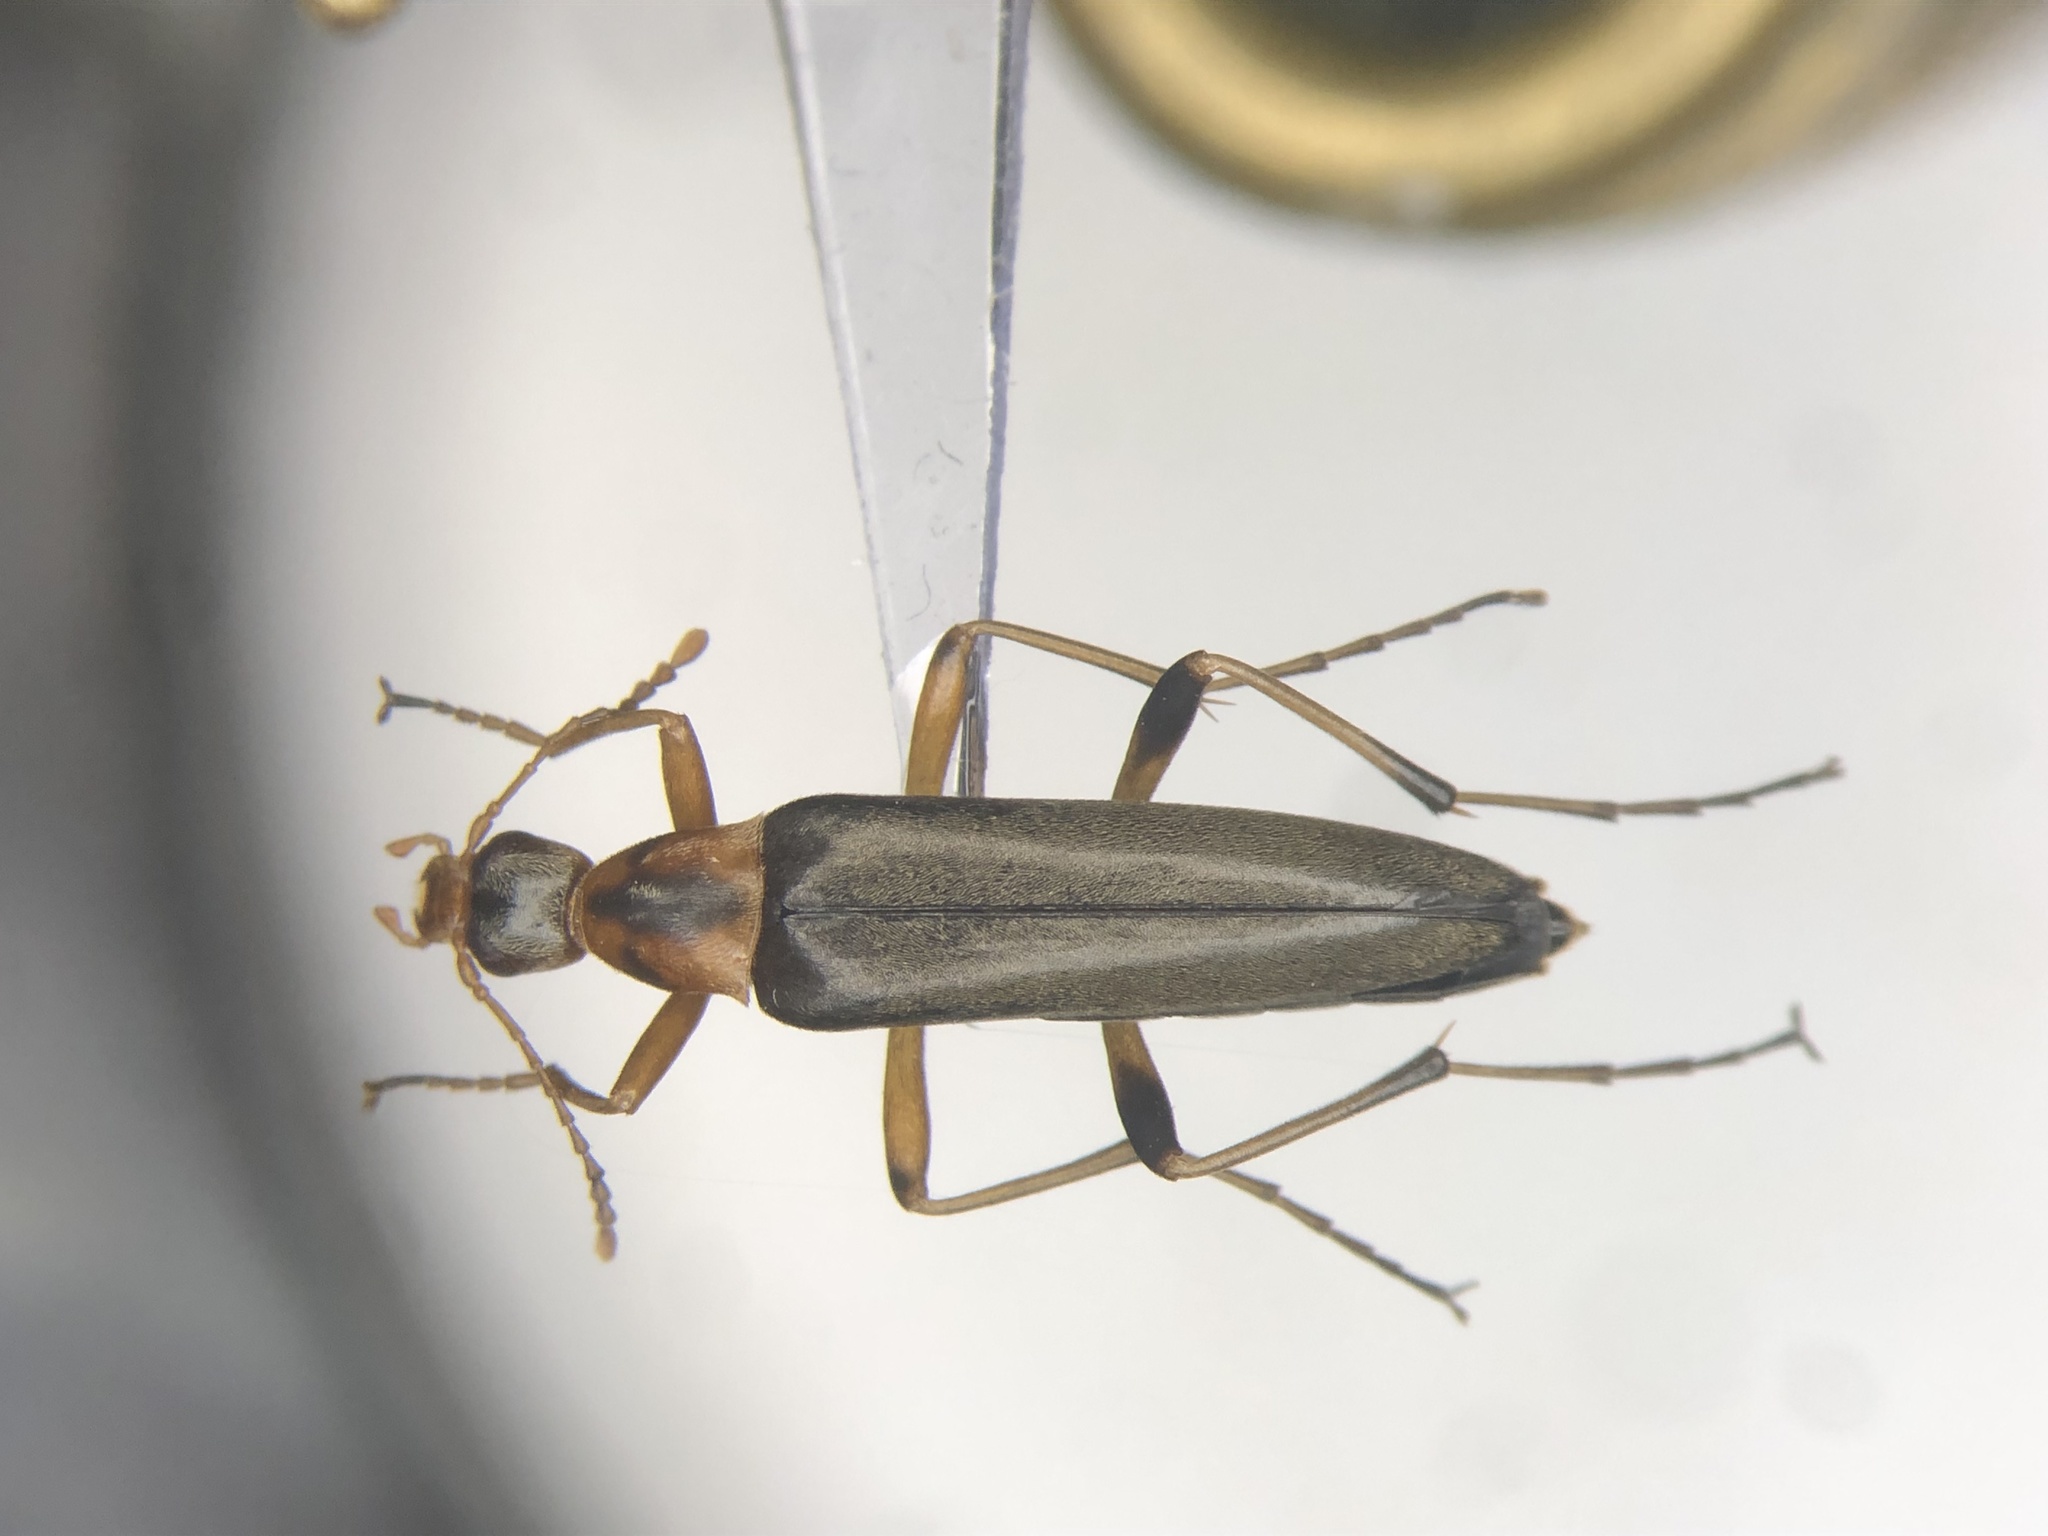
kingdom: Animalia
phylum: Arthropoda
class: Insecta
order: Coleoptera
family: Stenotrachelidae
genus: Cephaloon
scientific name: Cephaloon lepturides
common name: False leptura beetle
